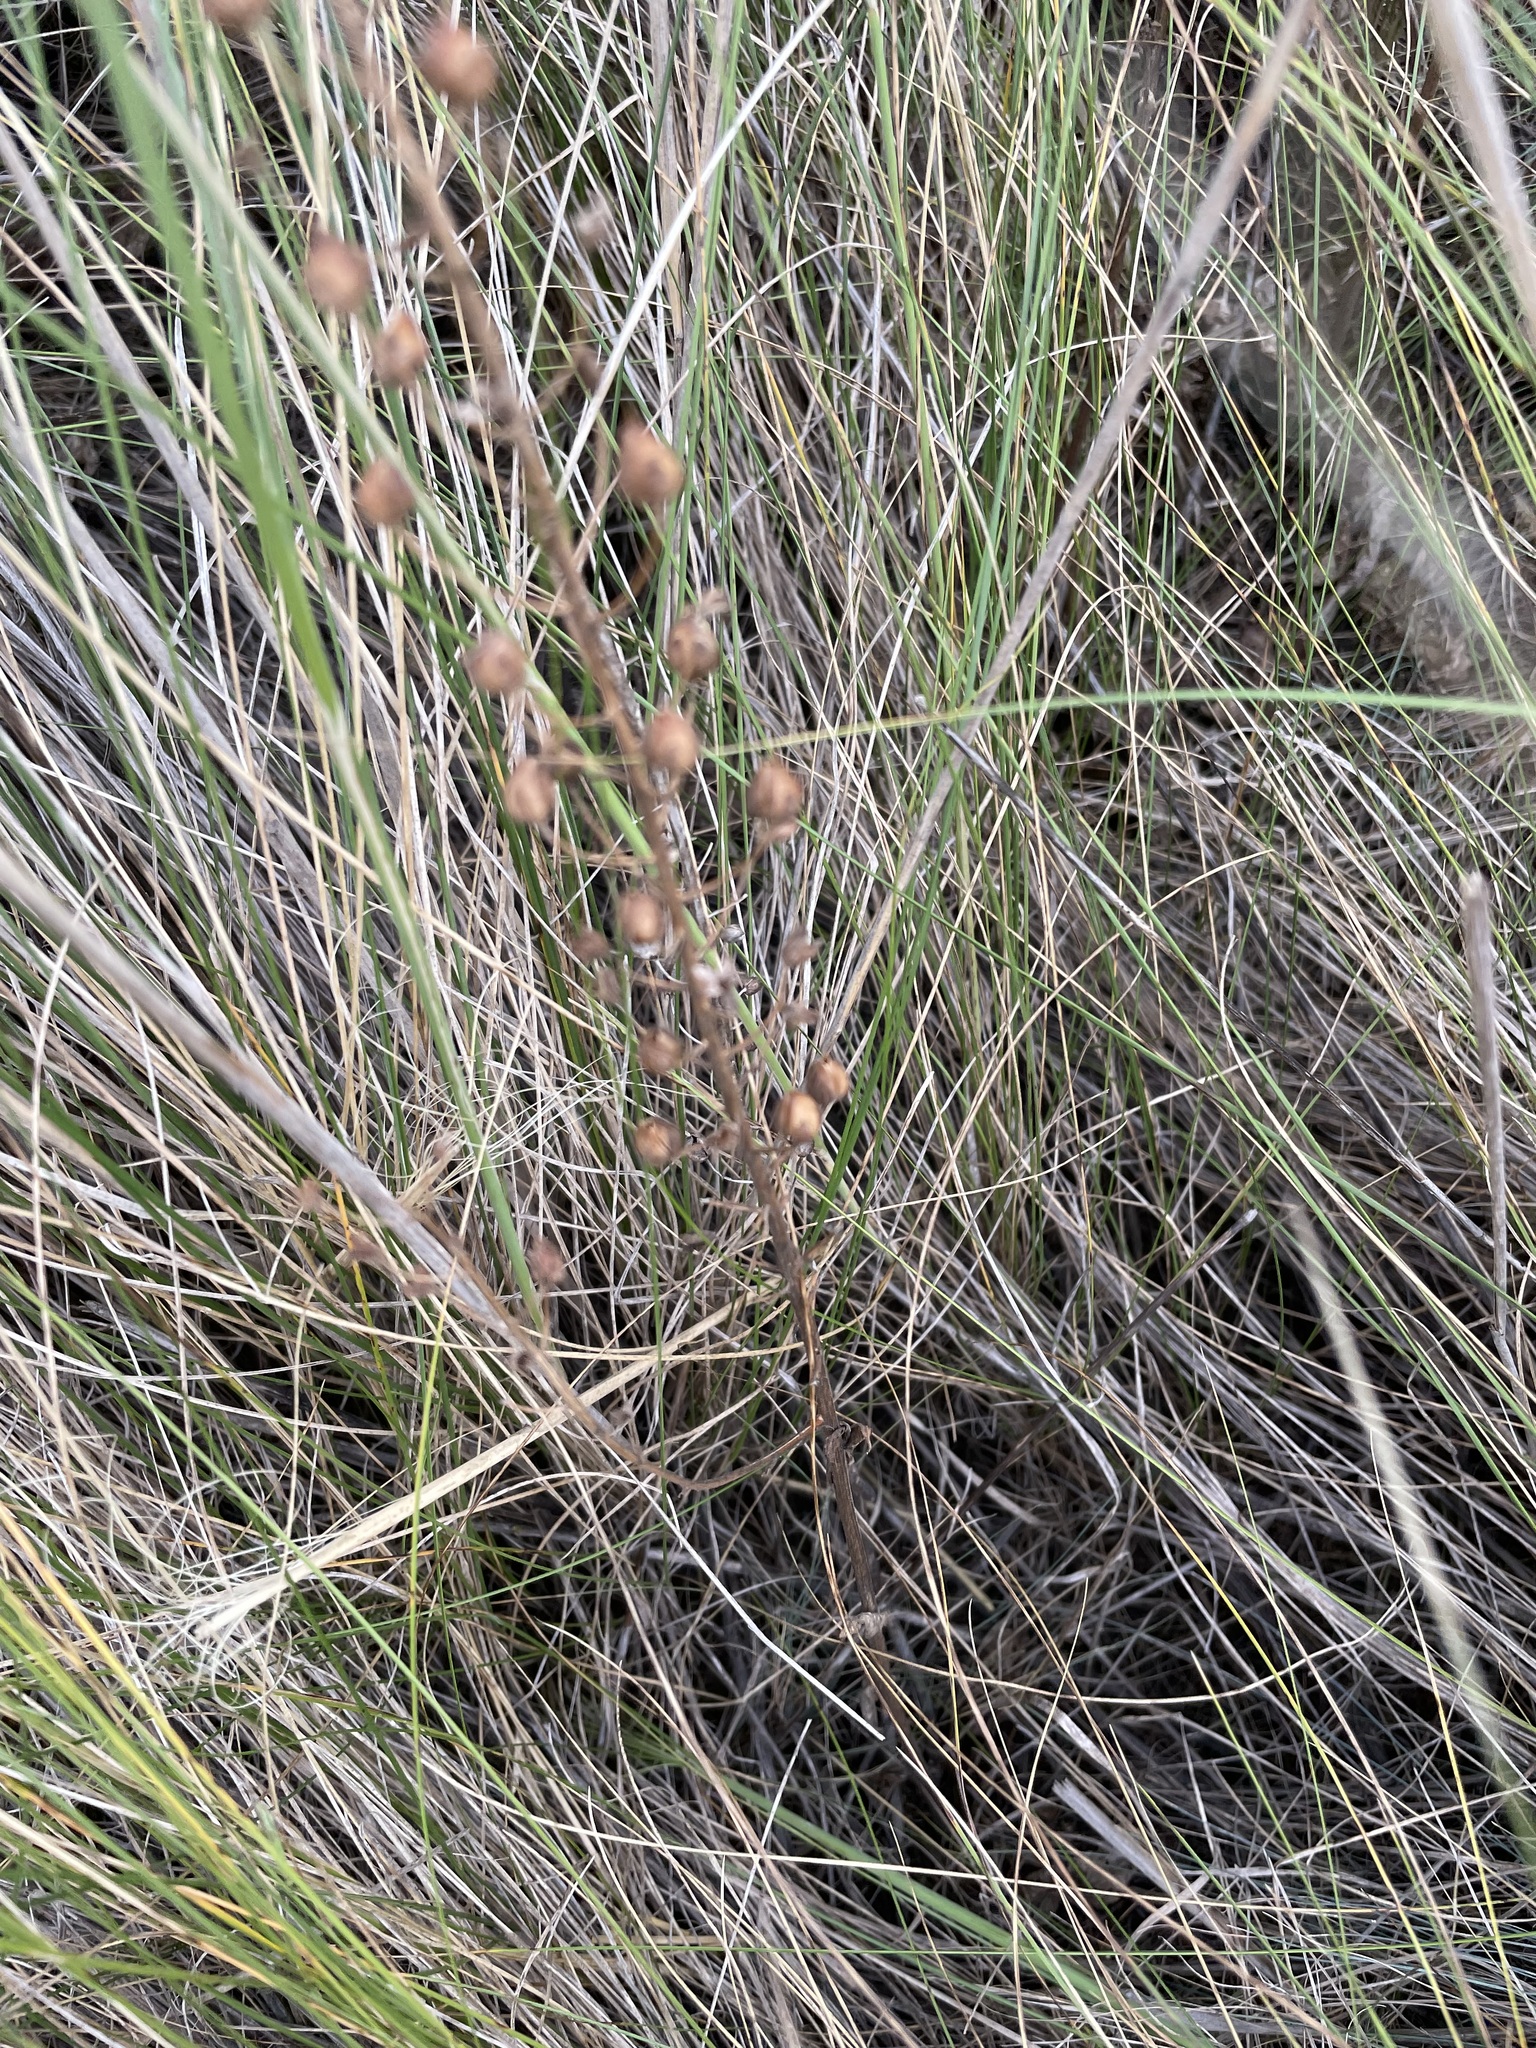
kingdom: Plantae
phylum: Tracheophyta
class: Magnoliopsida
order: Lamiales
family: Scrophulariaceae
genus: Verbascum
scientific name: Verbascum phoeniceum
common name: Purple mullein
